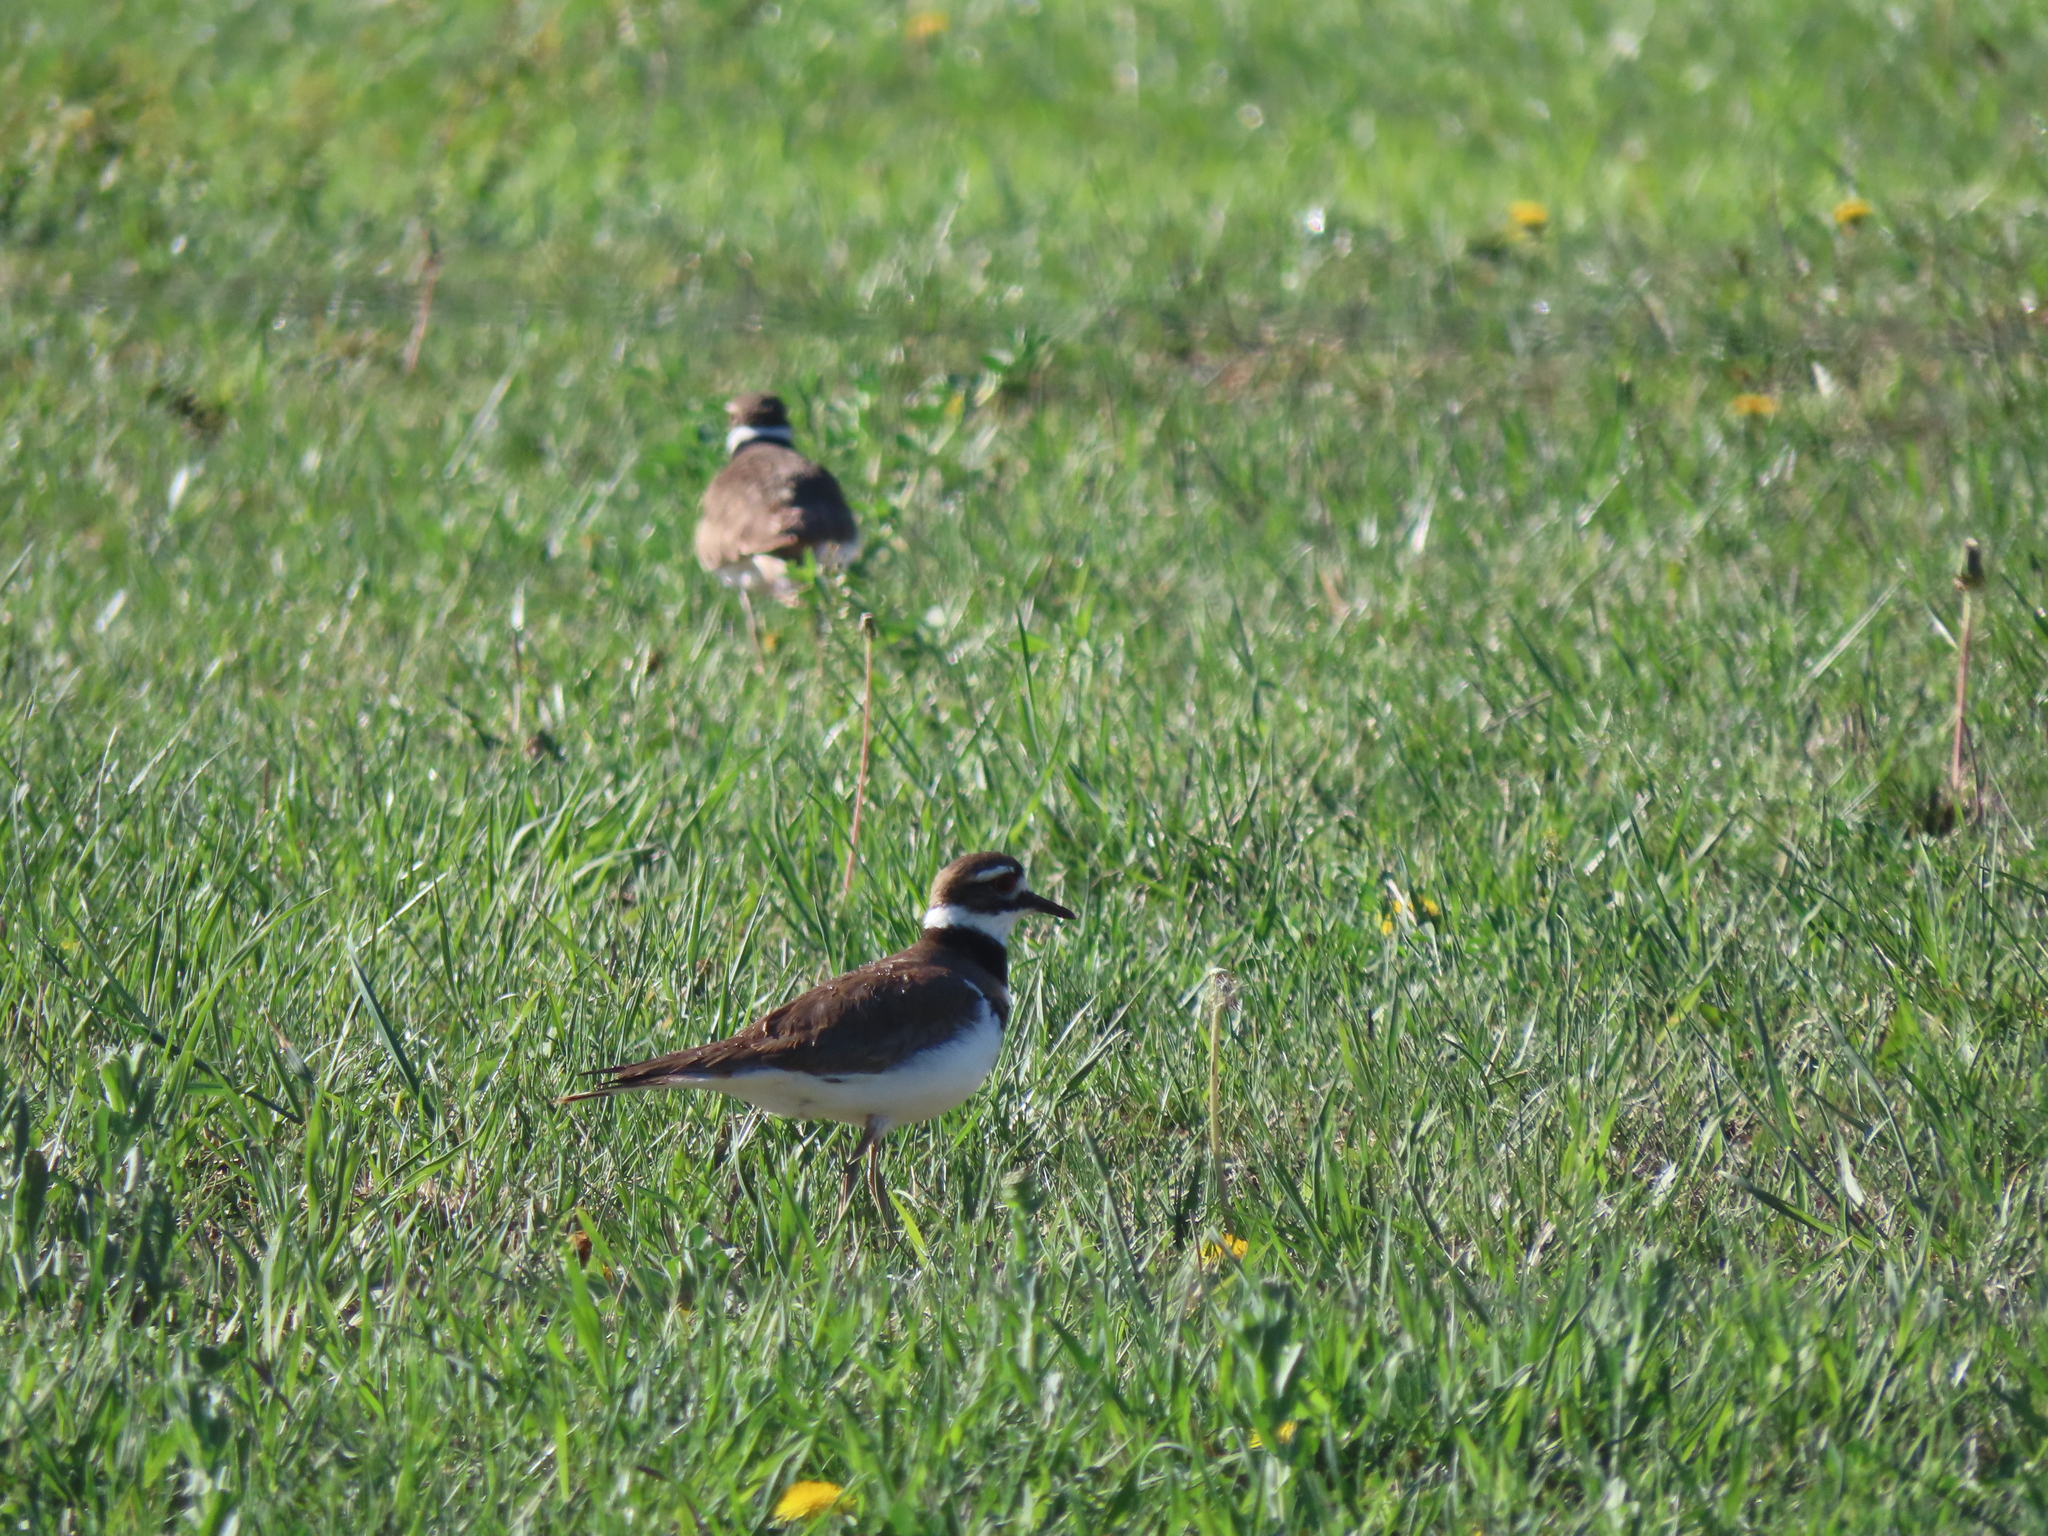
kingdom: Animalia
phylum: Chordata
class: Aves
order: Charadriiformes
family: Charadriidae
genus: Charadrius
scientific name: Charadrius vociferus
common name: Killdeer
